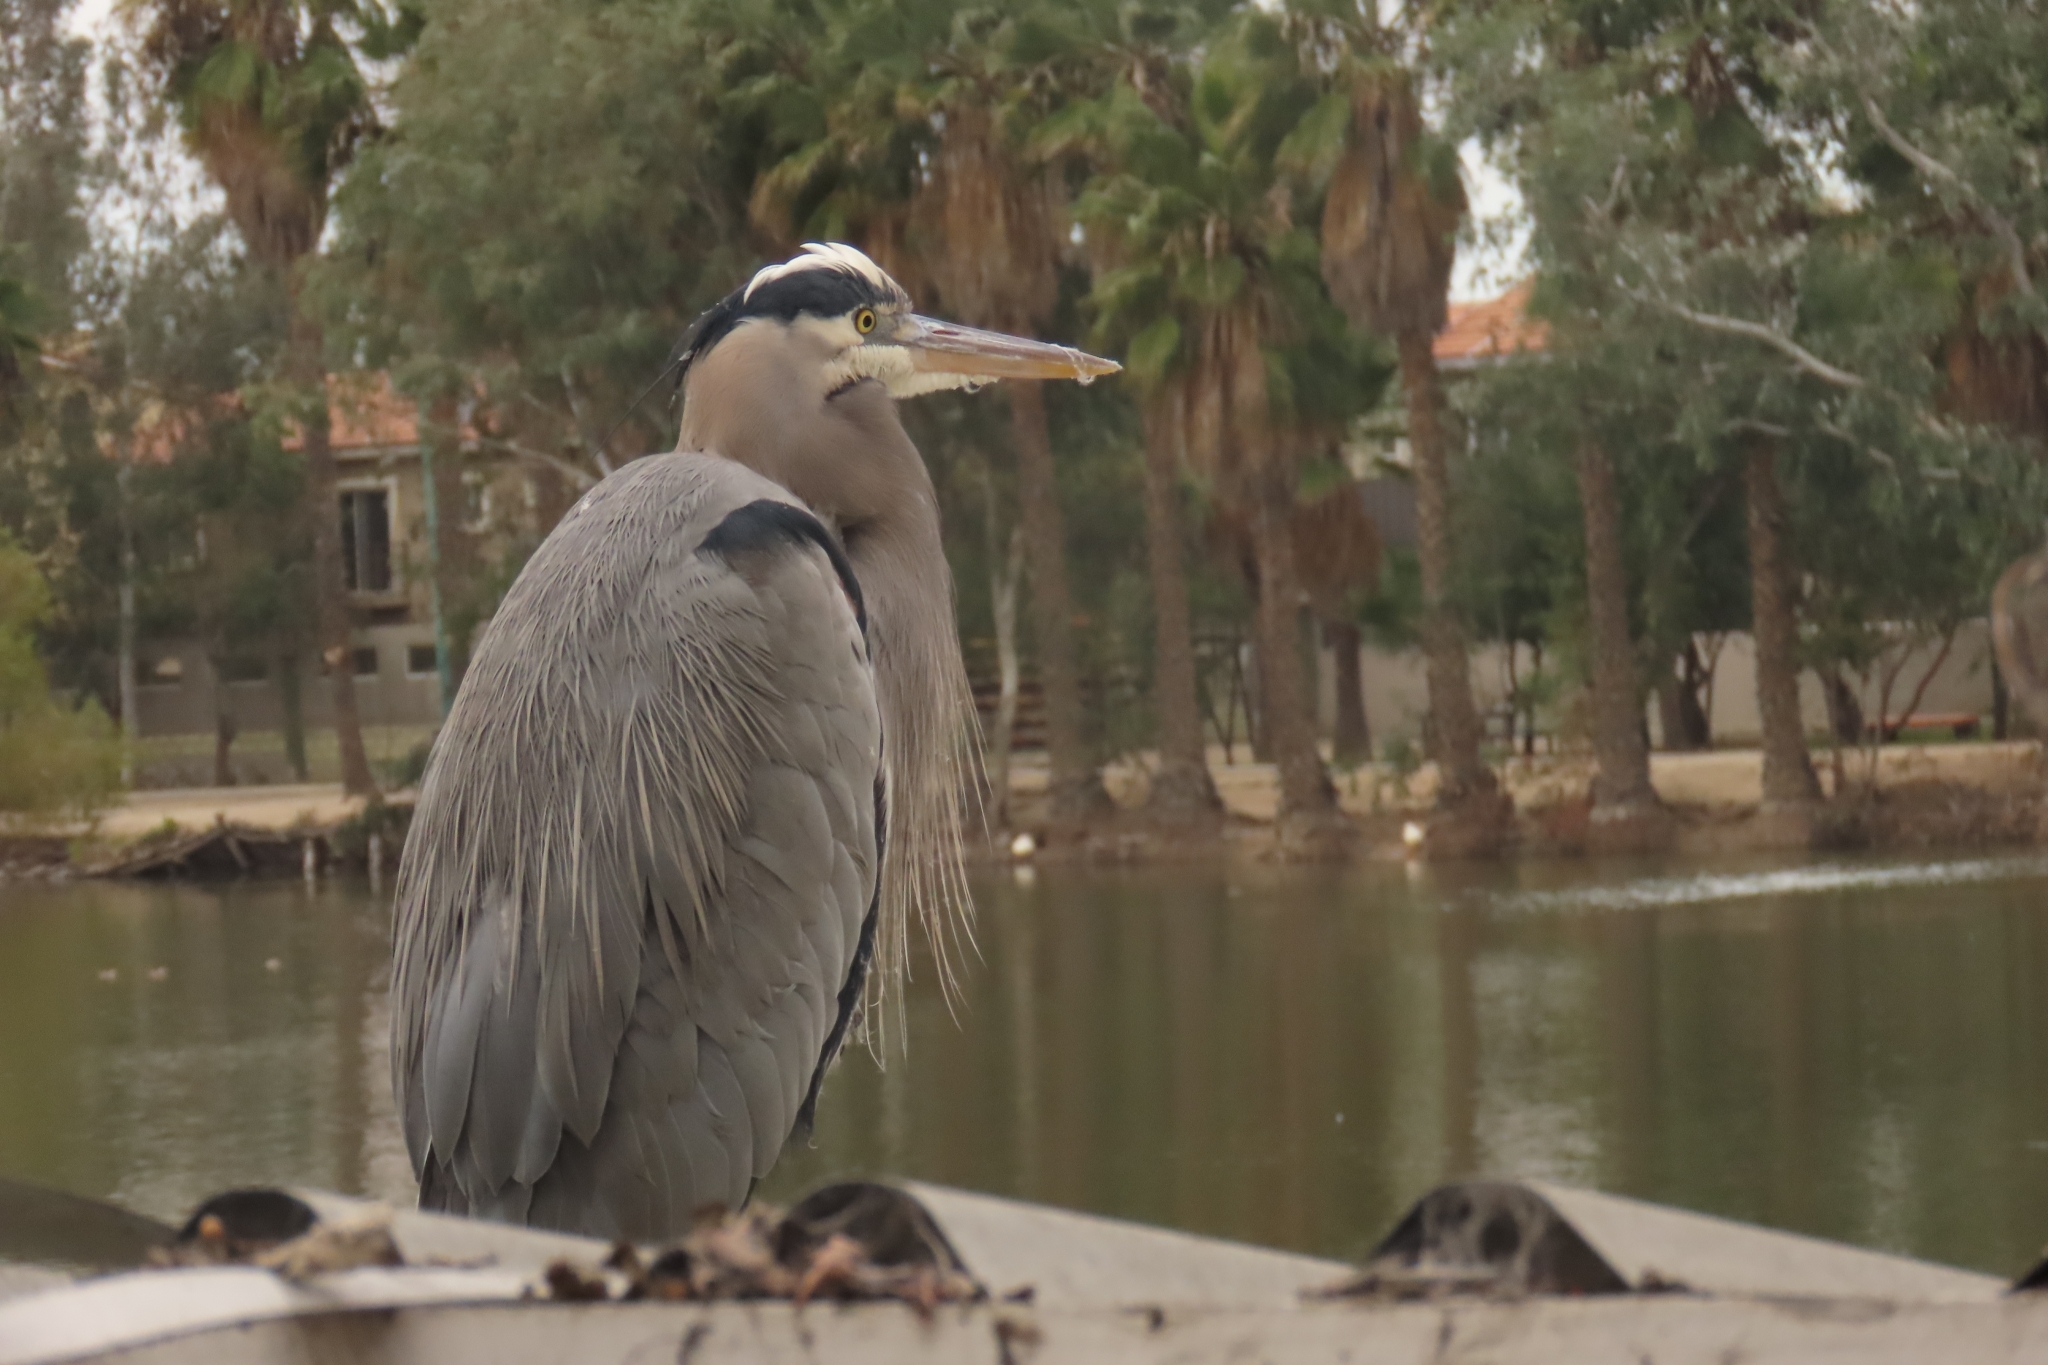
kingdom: Animalia
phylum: Chordata
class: Aves
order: Pelecaniformes
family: Ardeidae
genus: Ardea
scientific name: Ardea herodias
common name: Great blue heron
